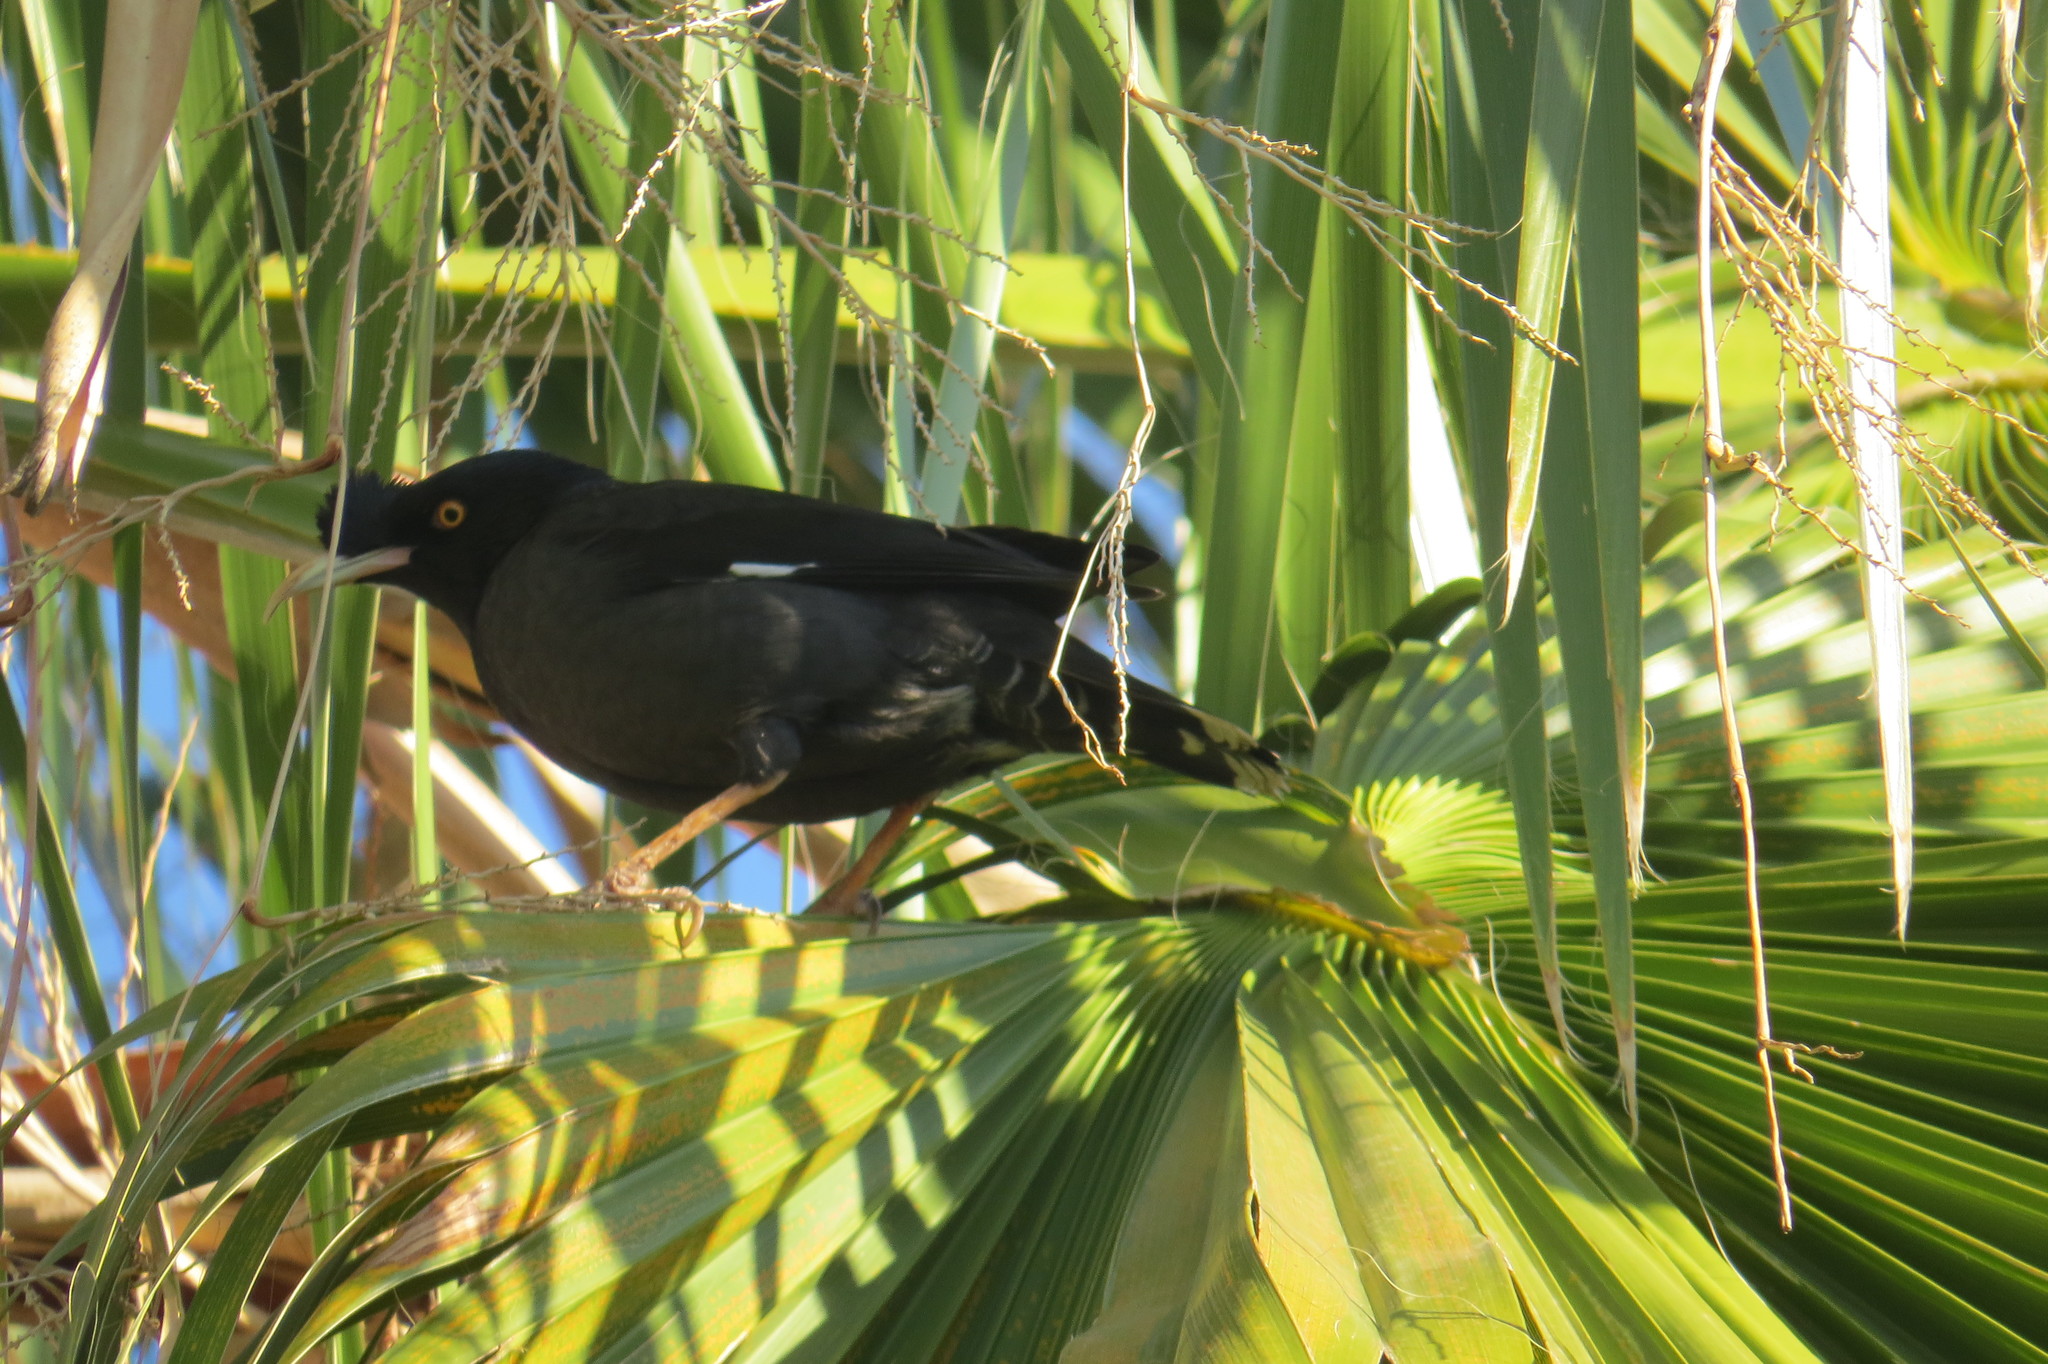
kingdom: Animalia
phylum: Chordata
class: Aves
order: Passeriformes
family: Sturnidae
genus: Acridotheres
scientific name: Acridotheres cristatellus
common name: Crested myna
